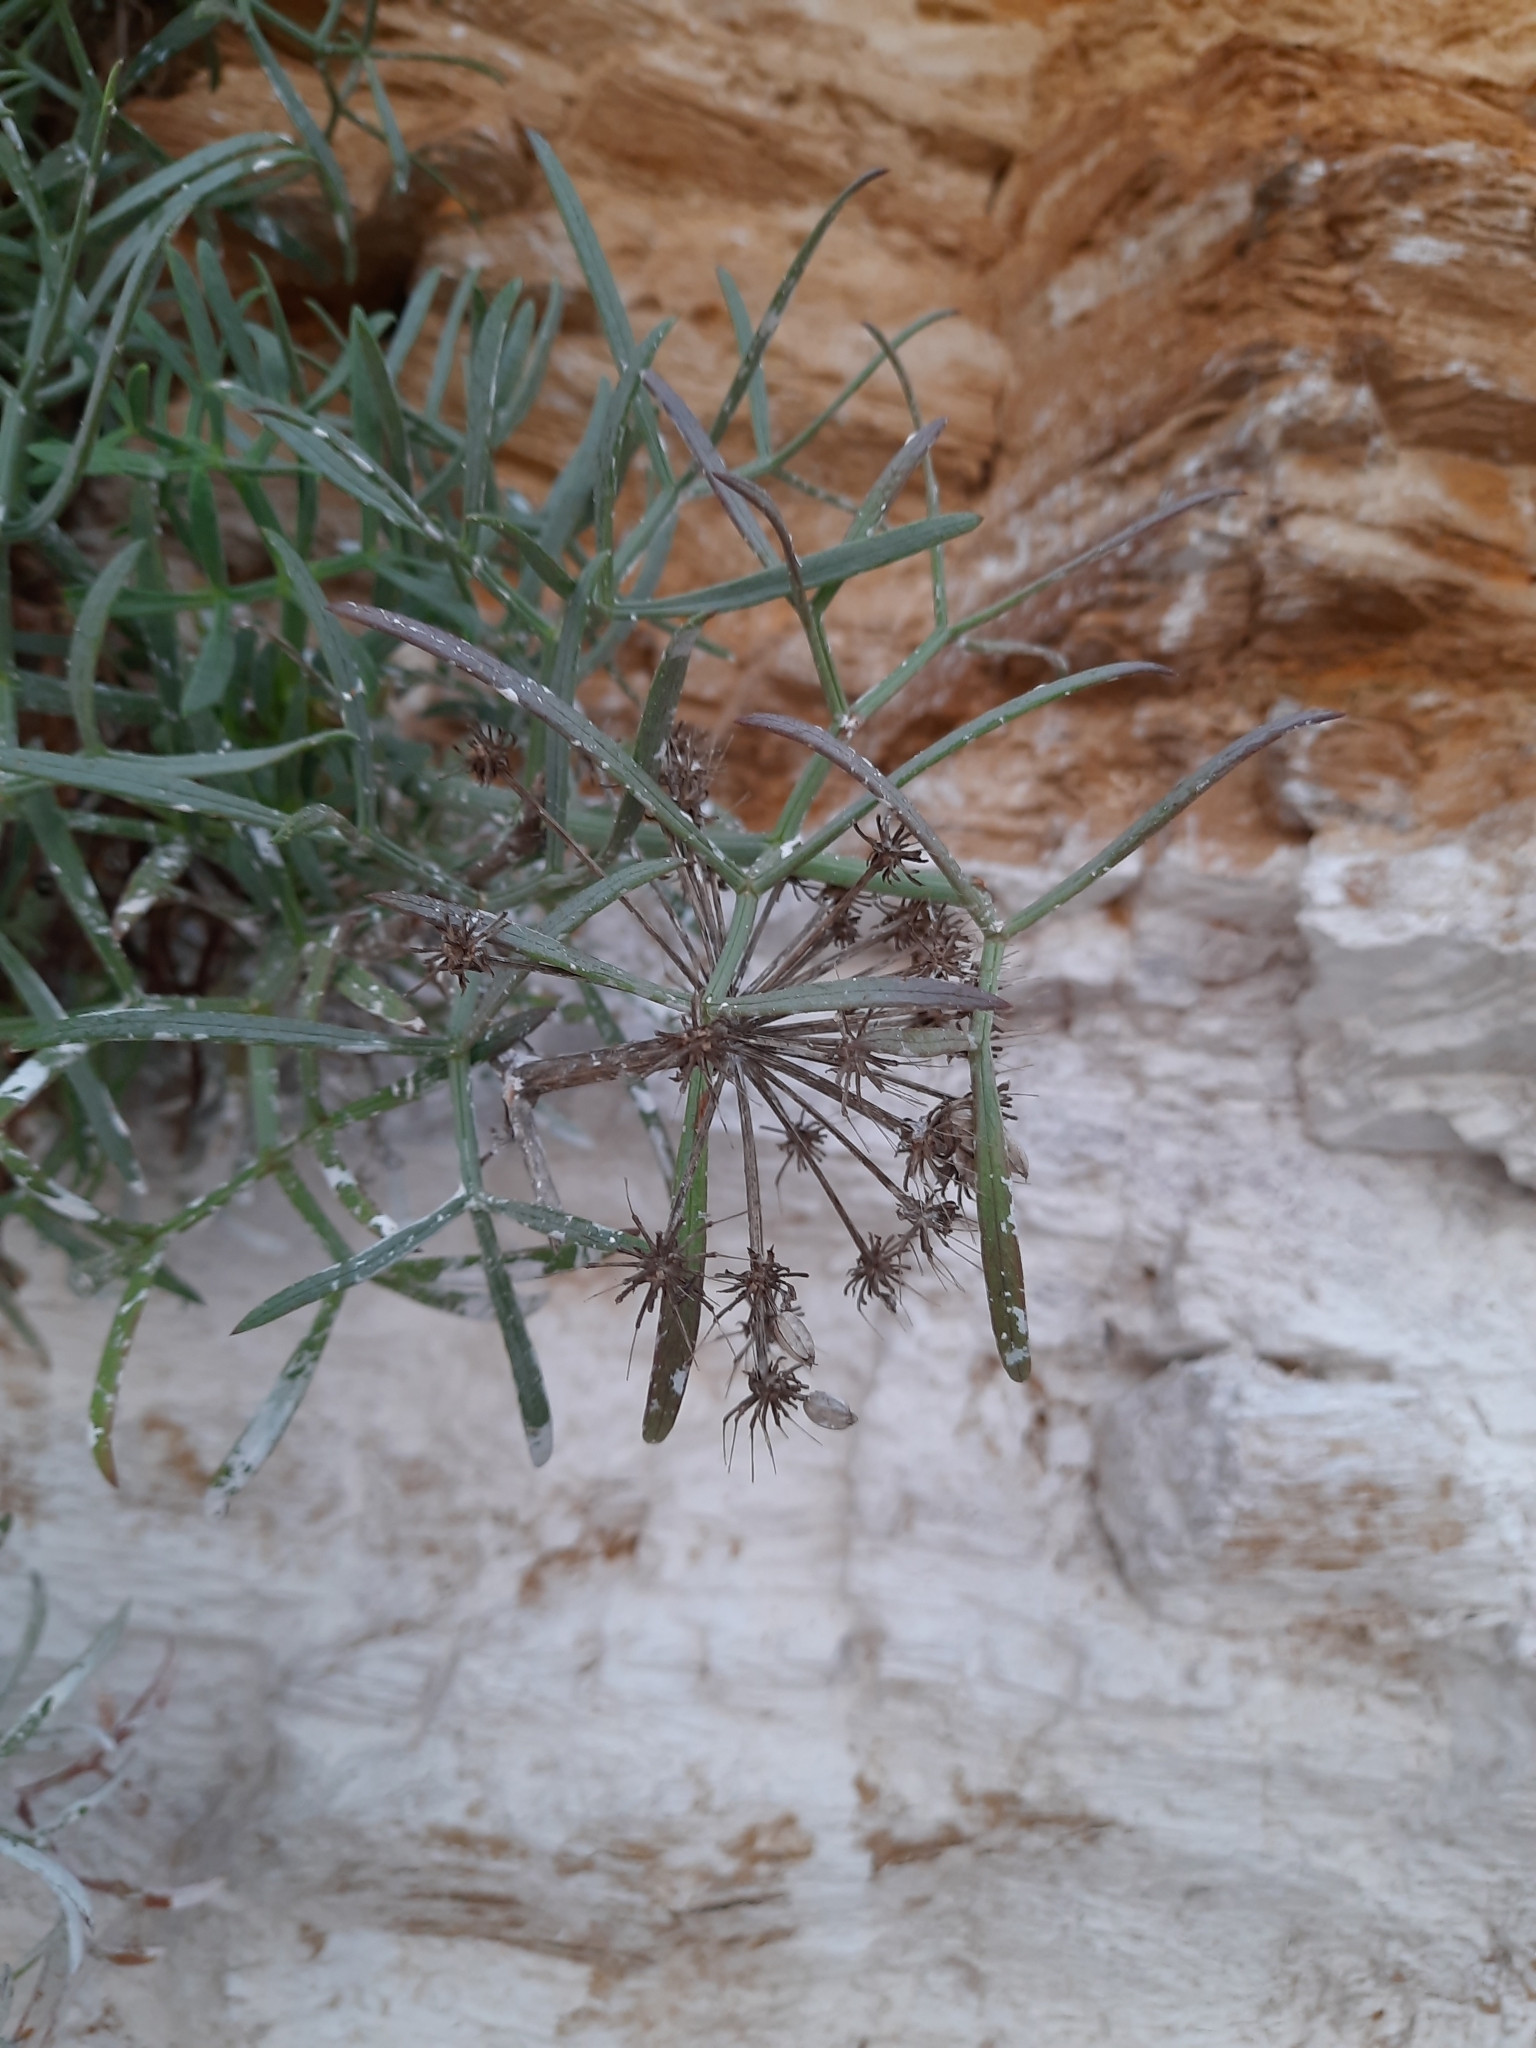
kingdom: Plantae
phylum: Tracheophyta
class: Magnoliopsida
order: Apiales
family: Apiaceae
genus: Crithmum
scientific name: Crithmum maritimum
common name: Rock samphire
